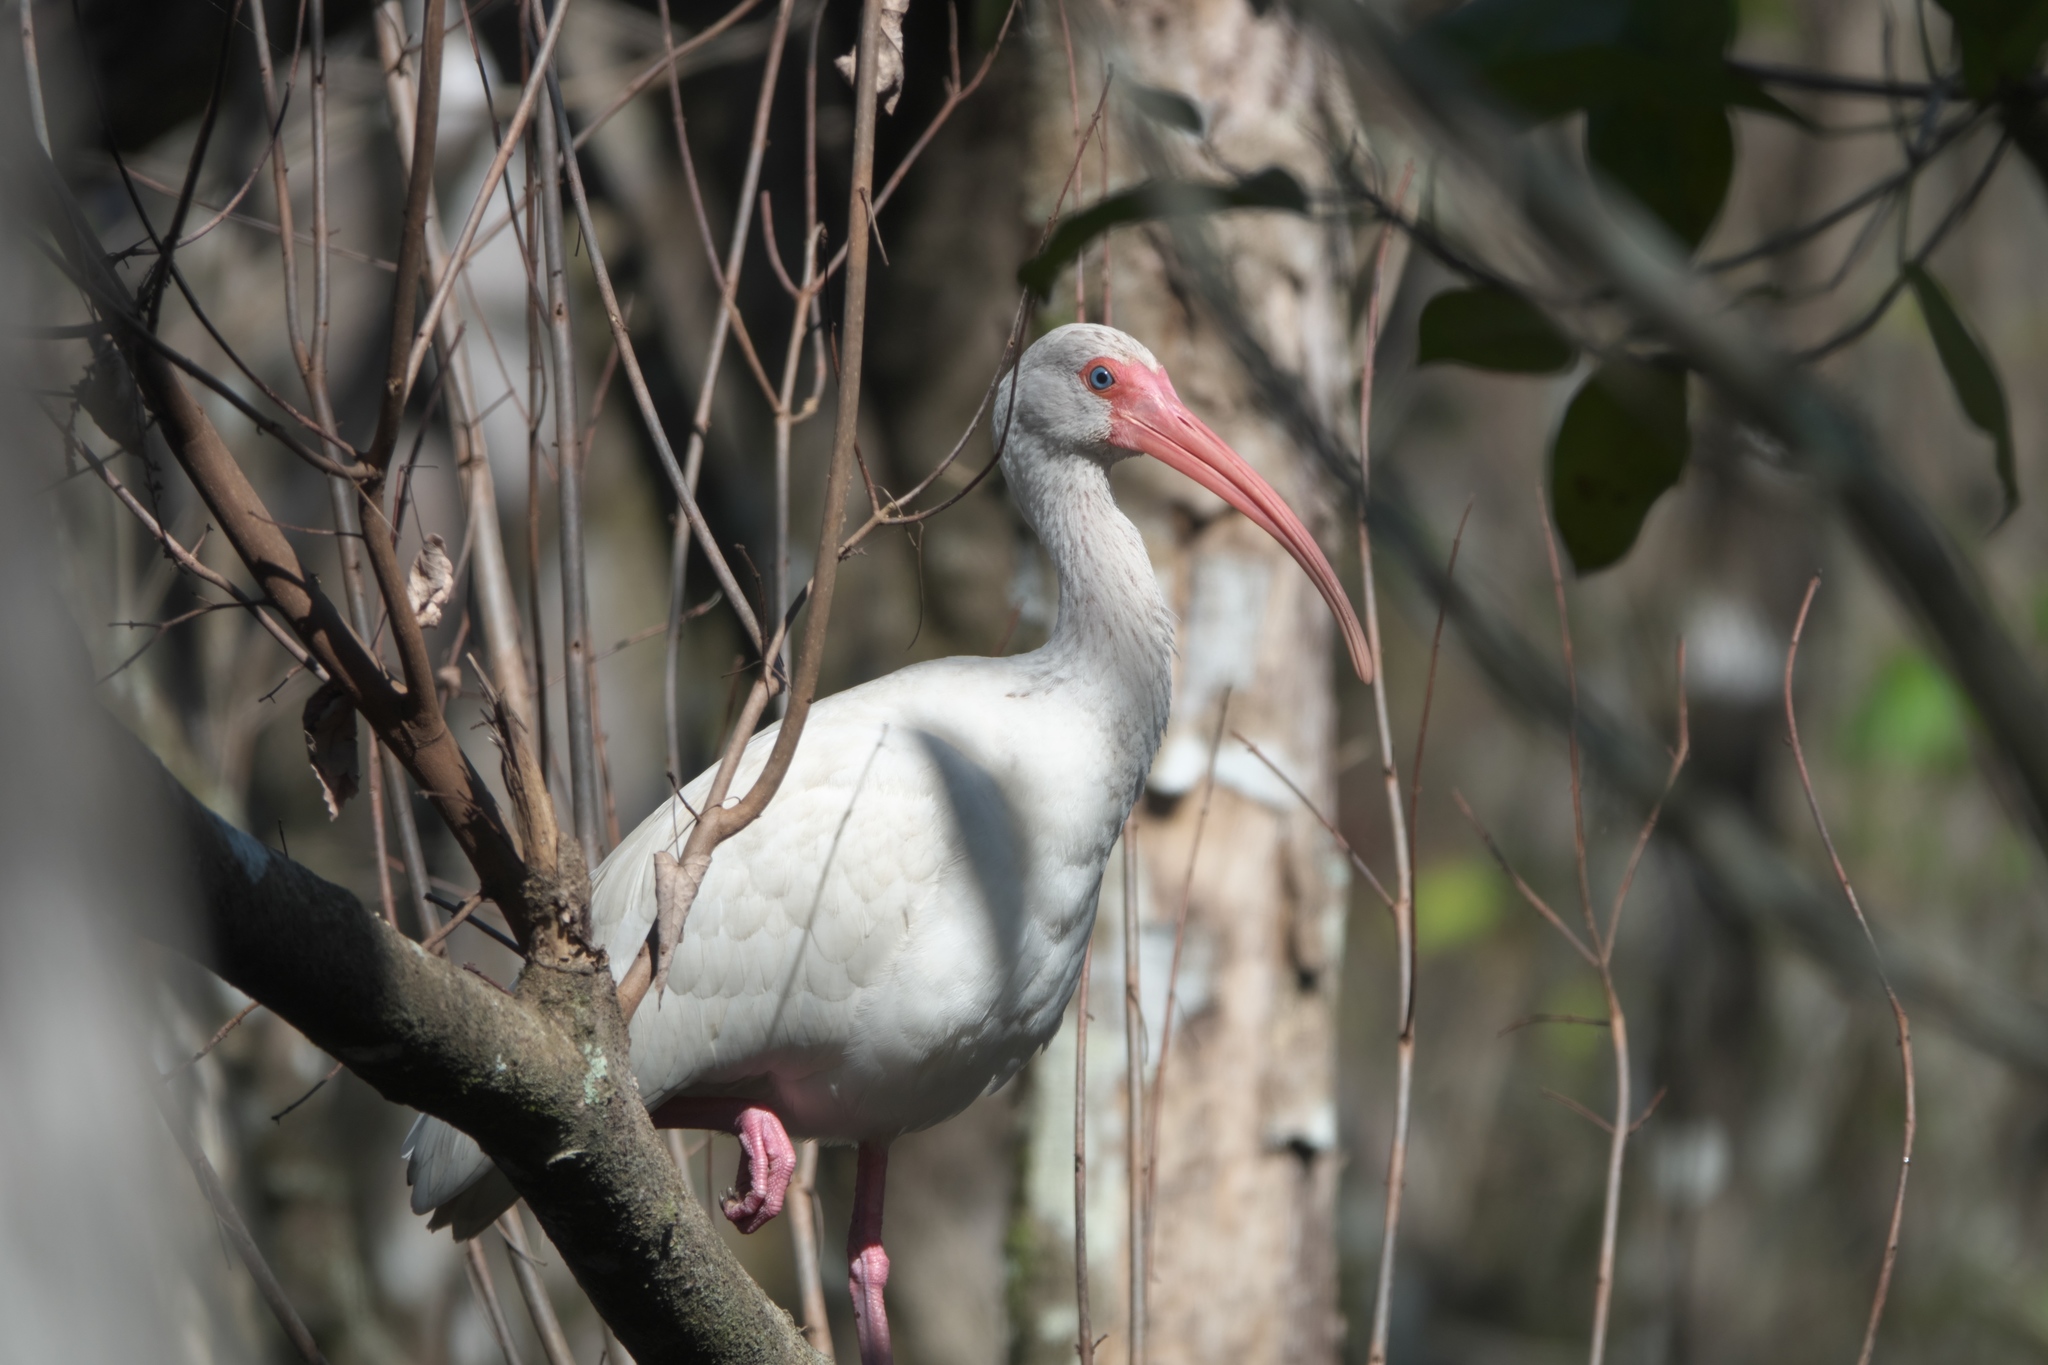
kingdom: Animalia
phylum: Chordata
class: Aves
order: Pelecaniformes
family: Threskiornithidae
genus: Eudocimus
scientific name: Eudocimus albus
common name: White ibis
